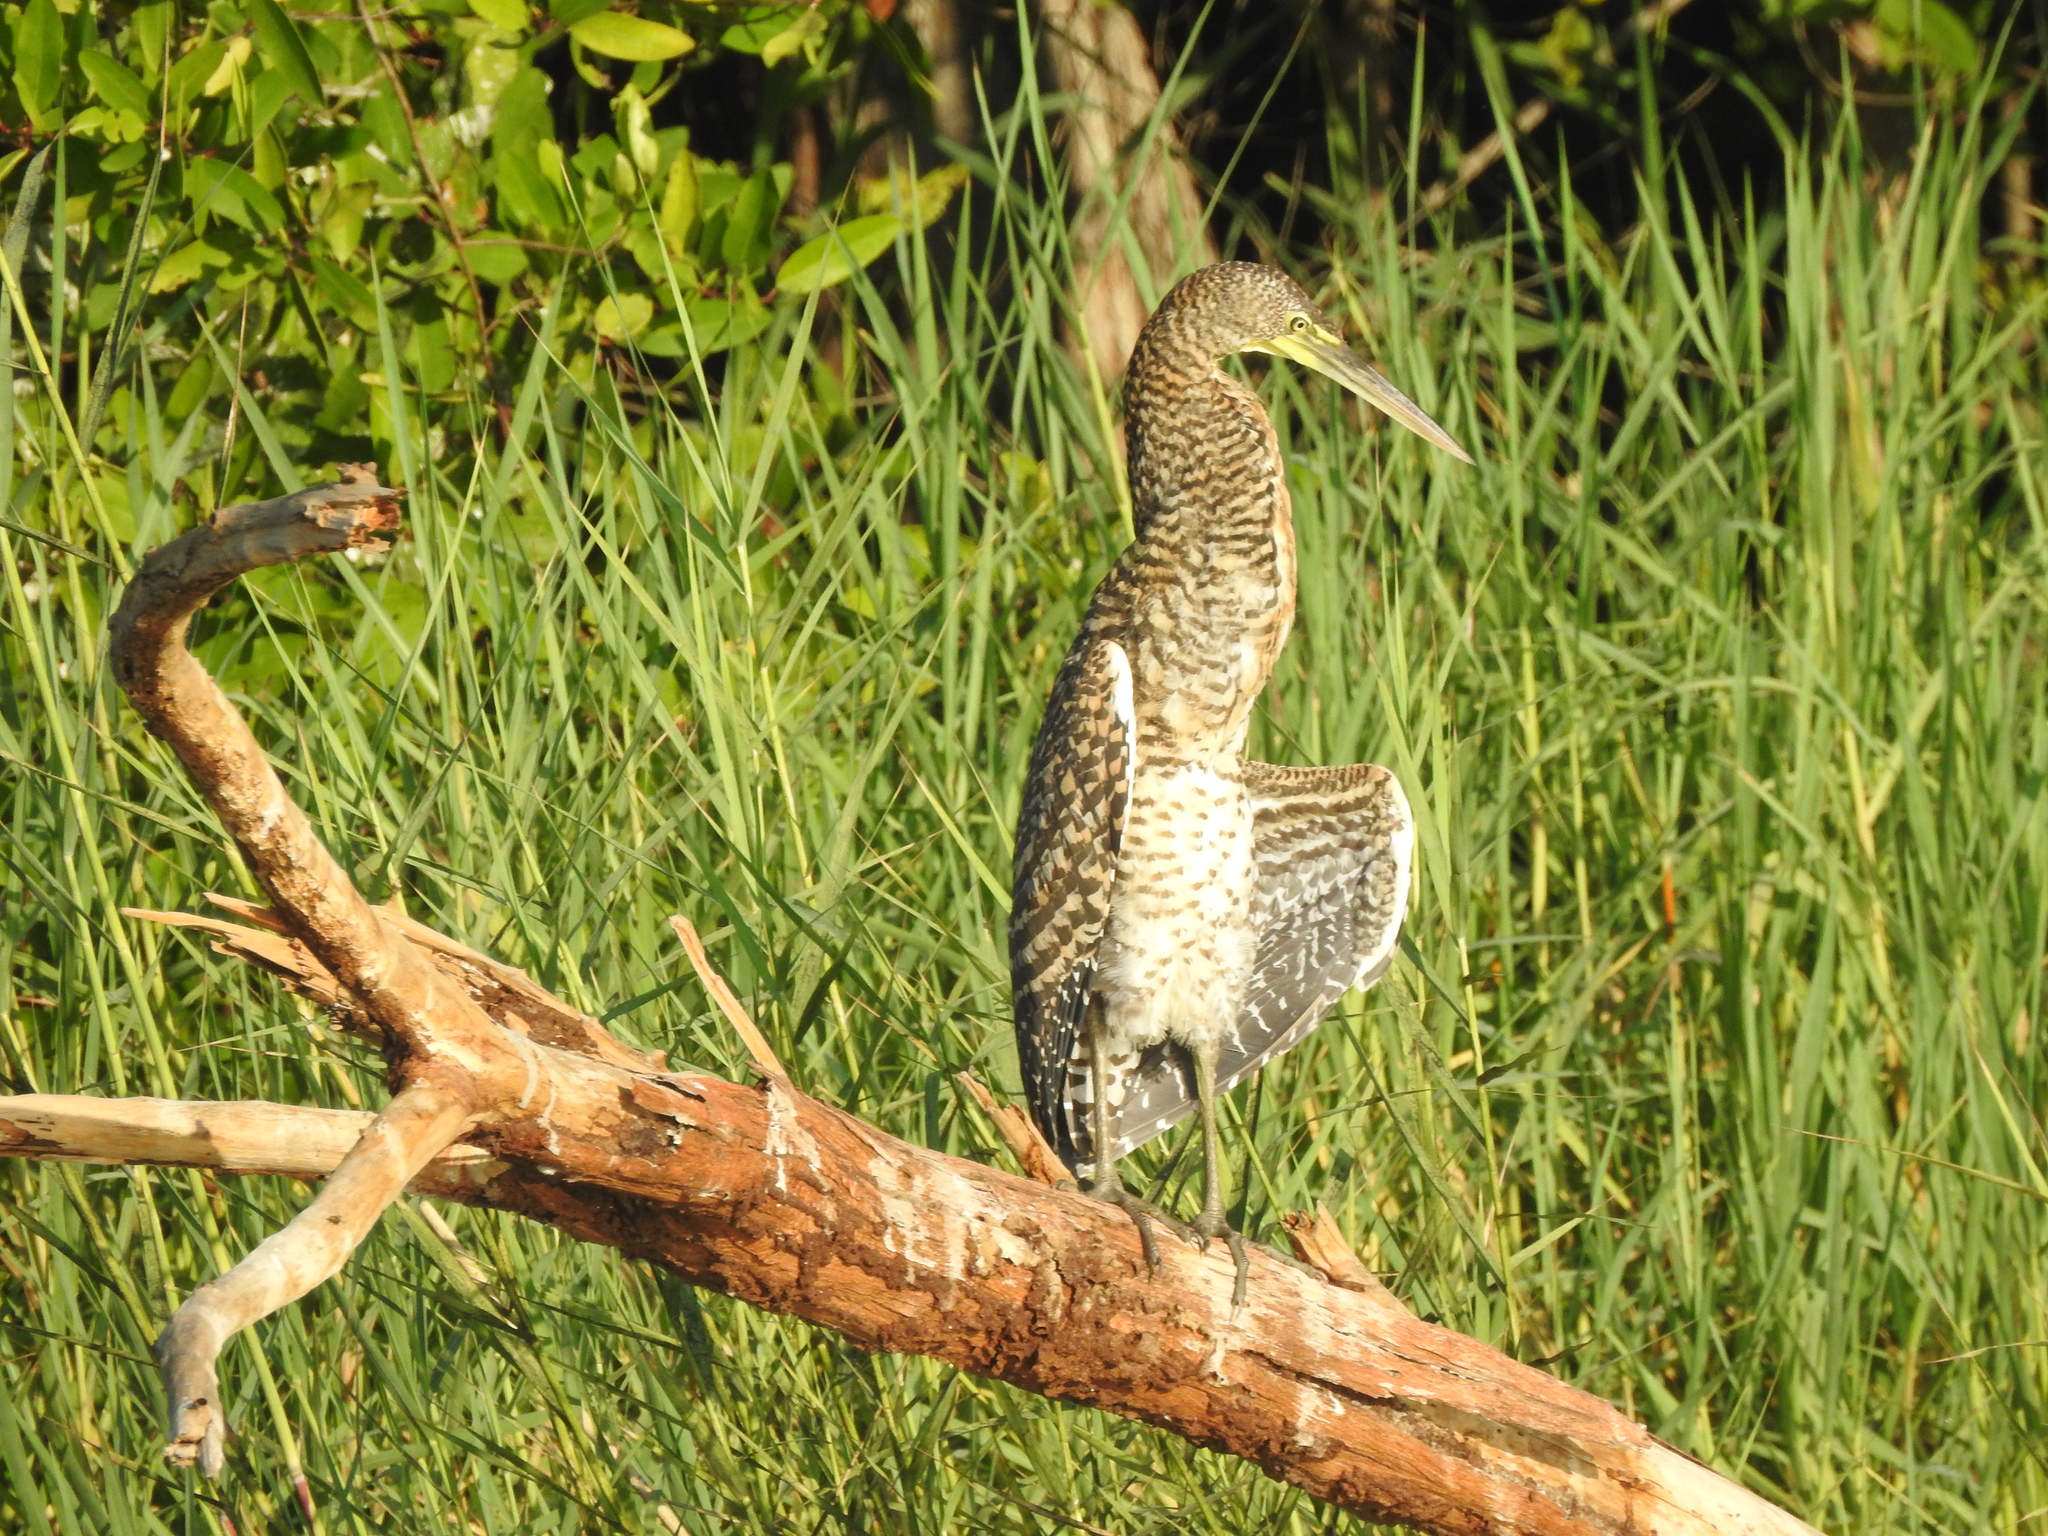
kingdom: Animalia
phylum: Chordata
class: Aves
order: Pelecaniformes
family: Ardeidae
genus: Tigrisoma
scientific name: Tigrisoma mexicanum
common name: Bare-throated tiger-heron
